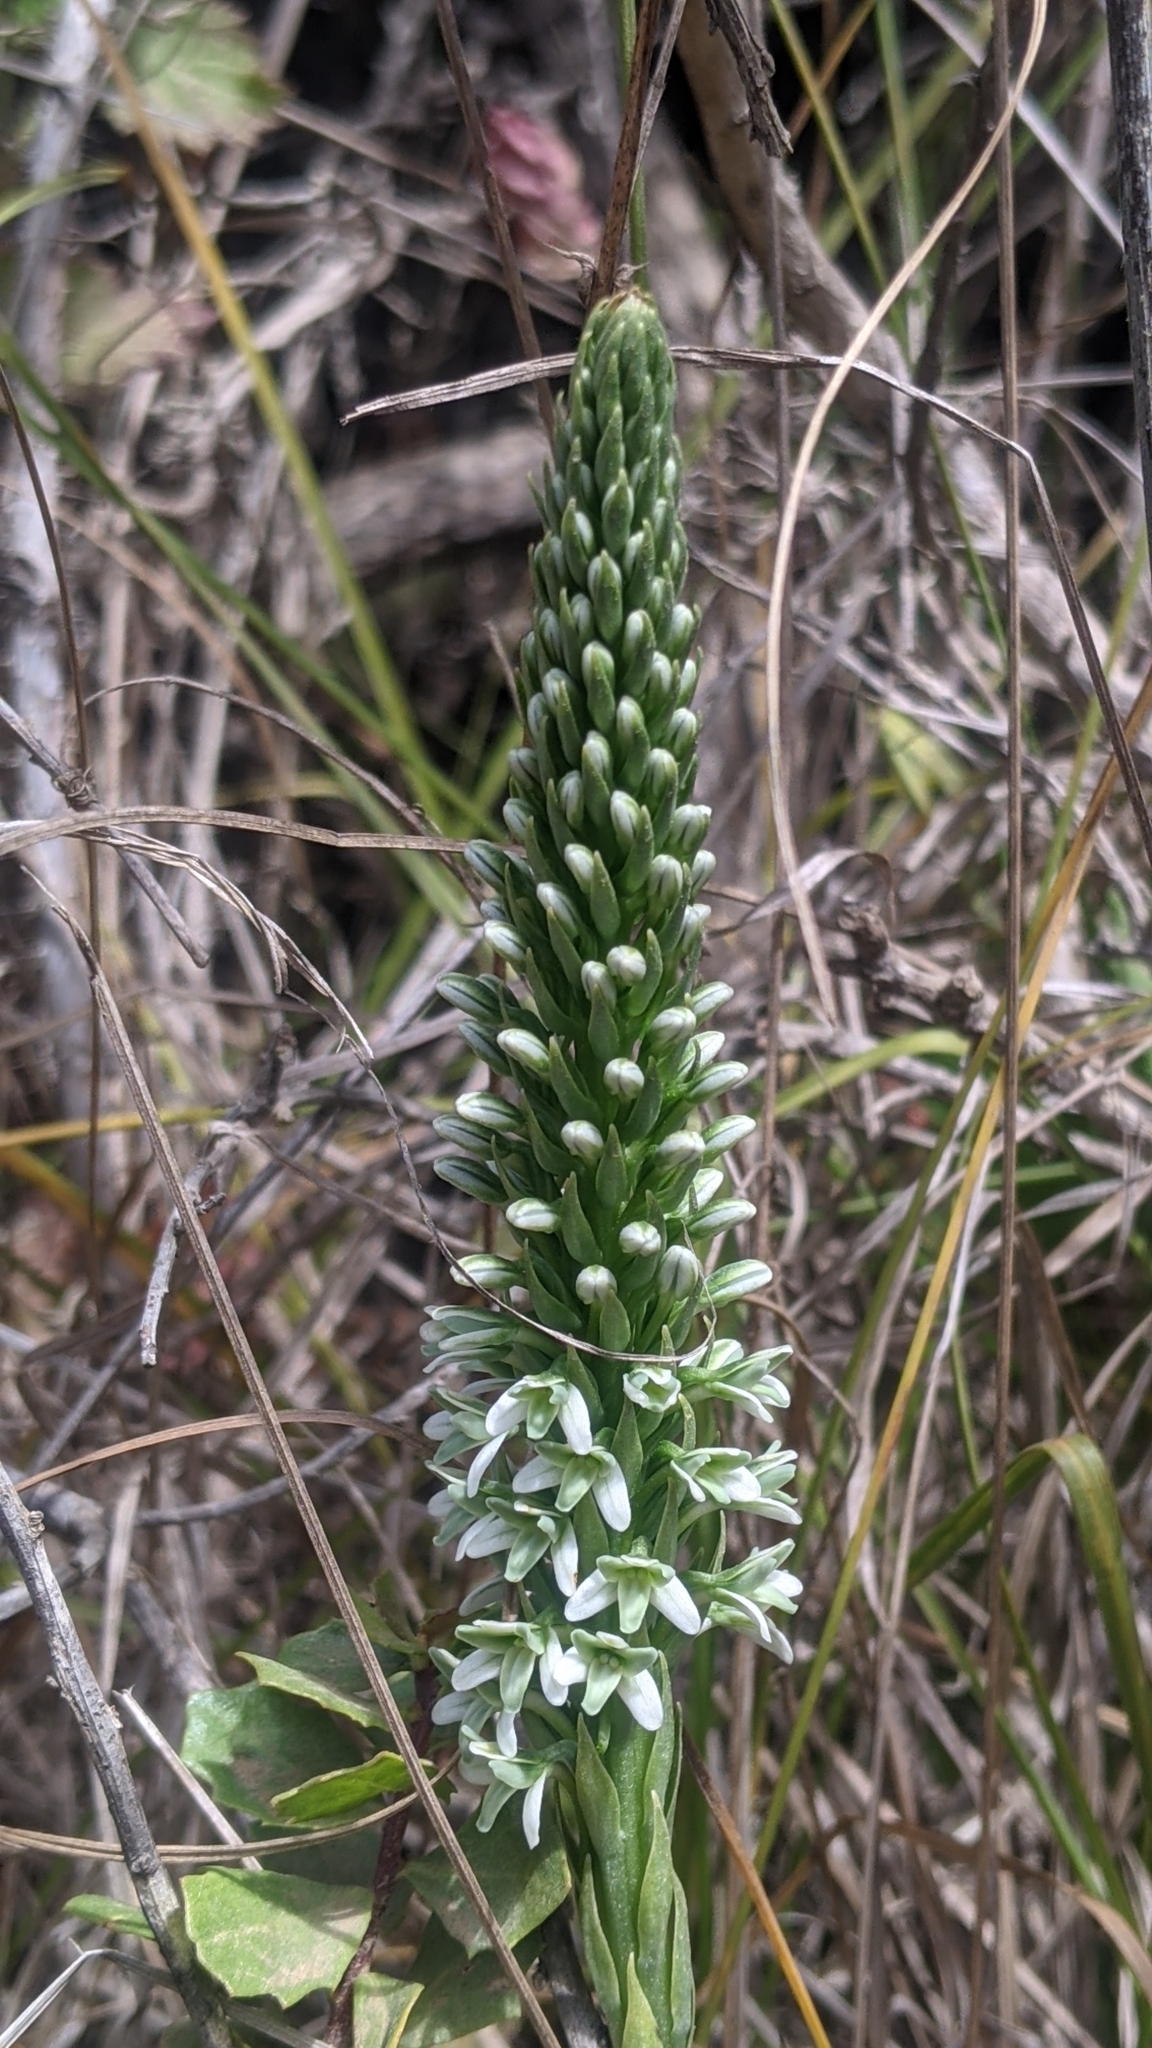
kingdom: Plantae
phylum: Tracheophyta
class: Liliopsida
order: Asparagales
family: Orchidaceae
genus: Platanthera
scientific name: Platanthera elegans
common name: Coast piperia
